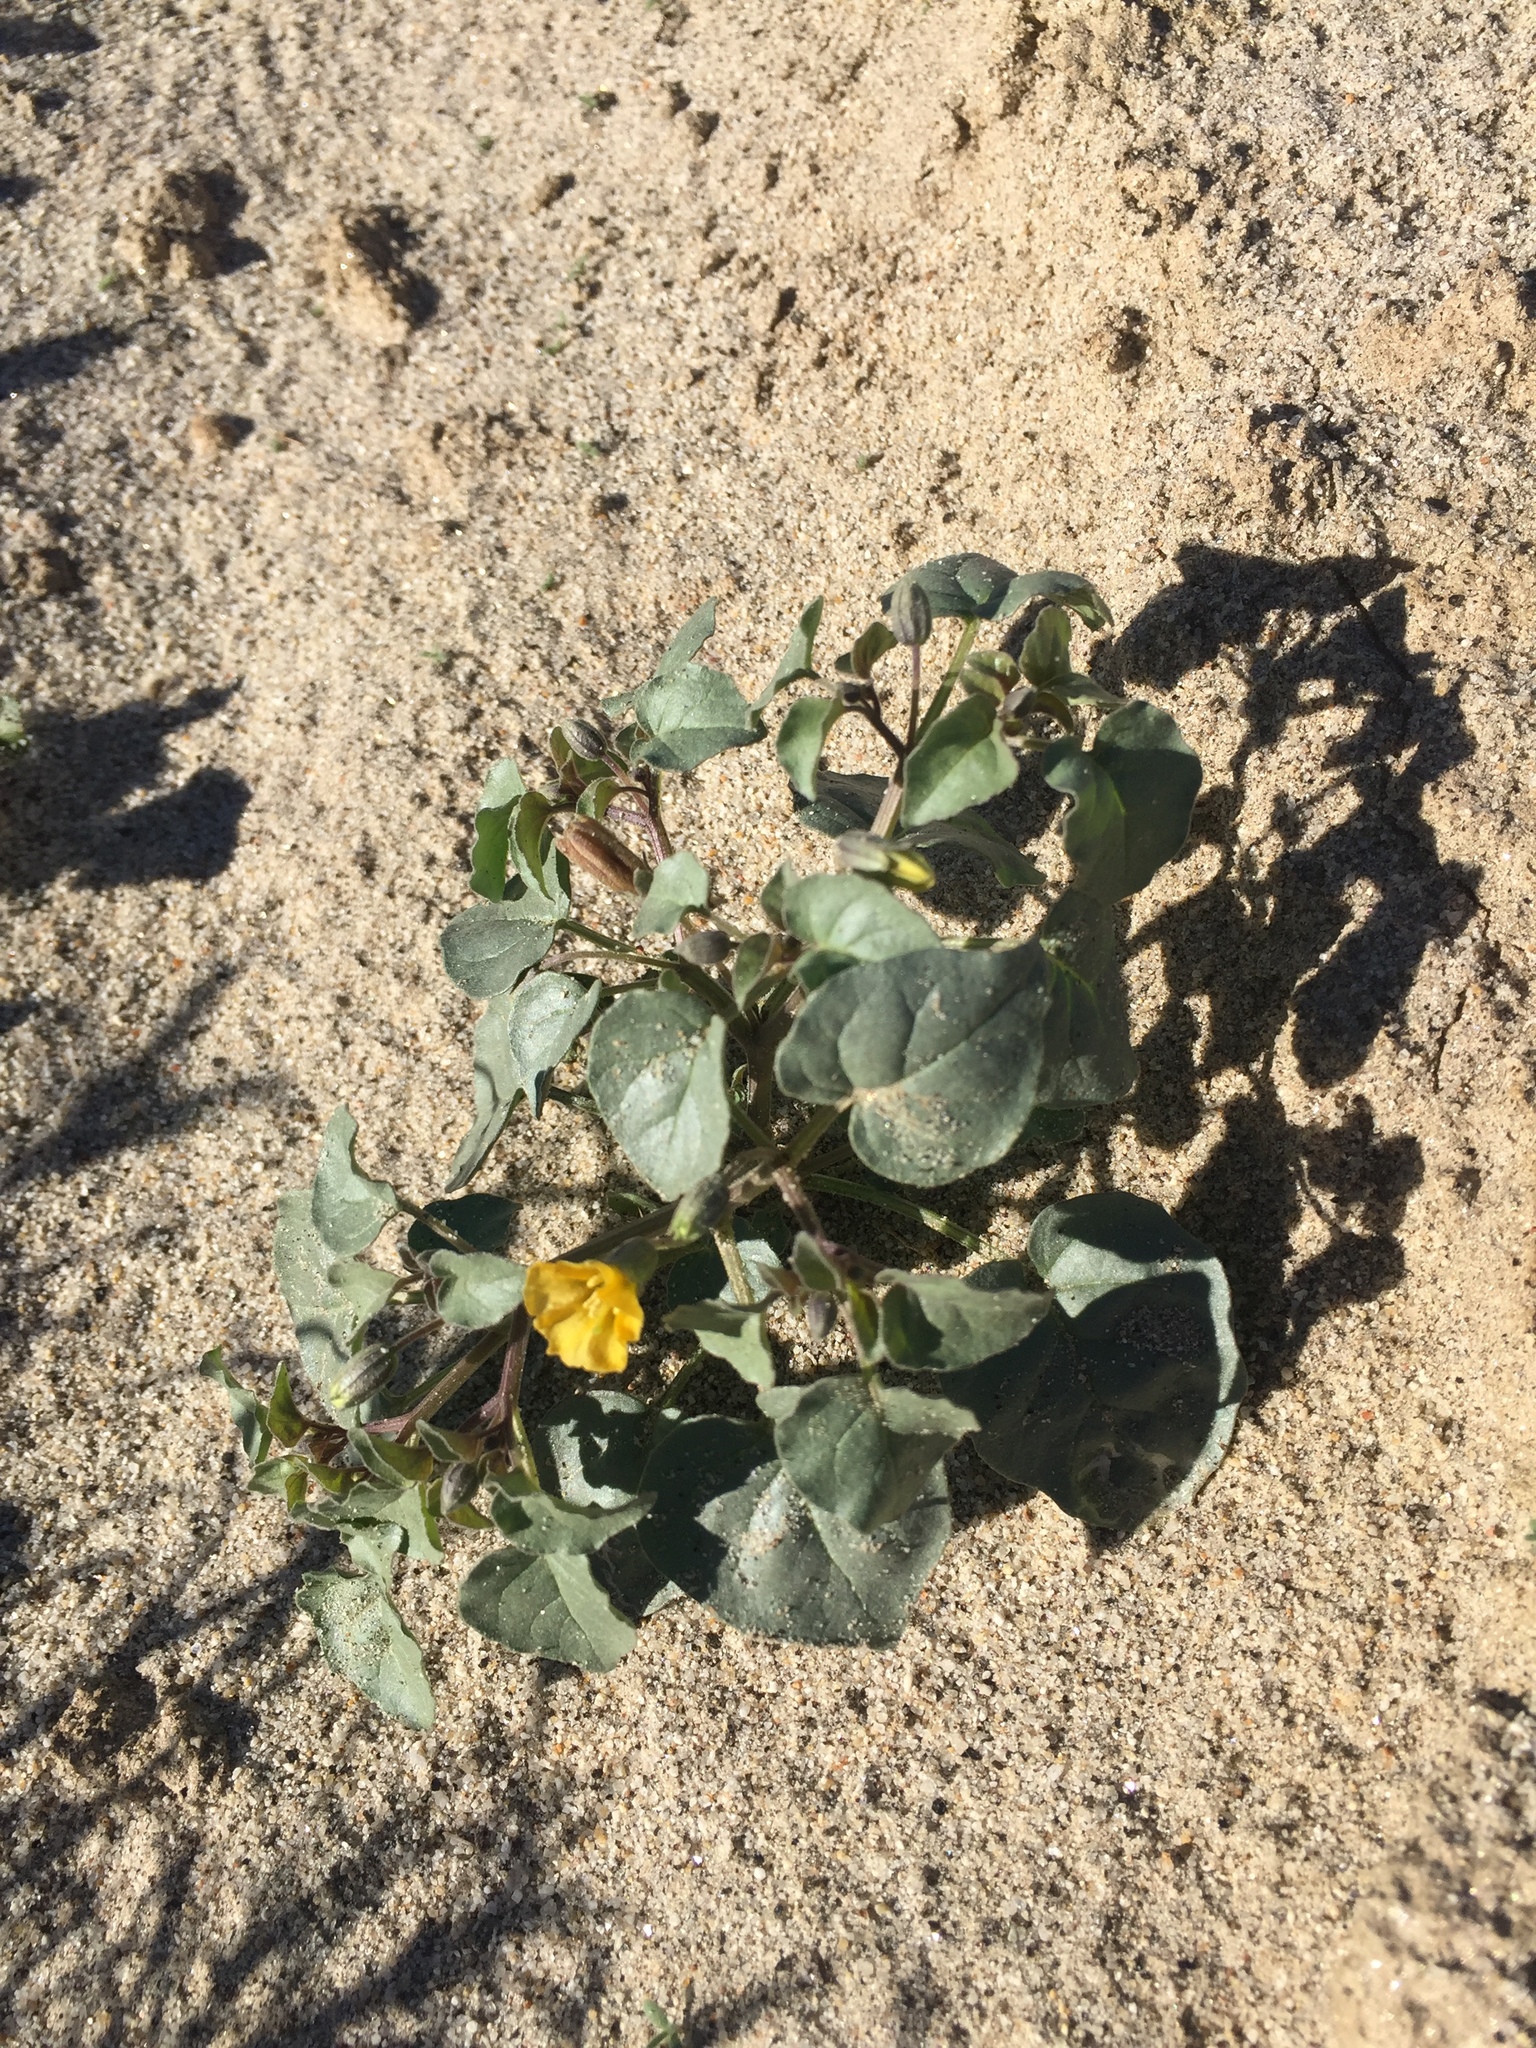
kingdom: Plantae
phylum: Tracheophyta
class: Magnoliopsida
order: Solanales
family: Solanaceae
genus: Physalis
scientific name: Physalis crassifolia
